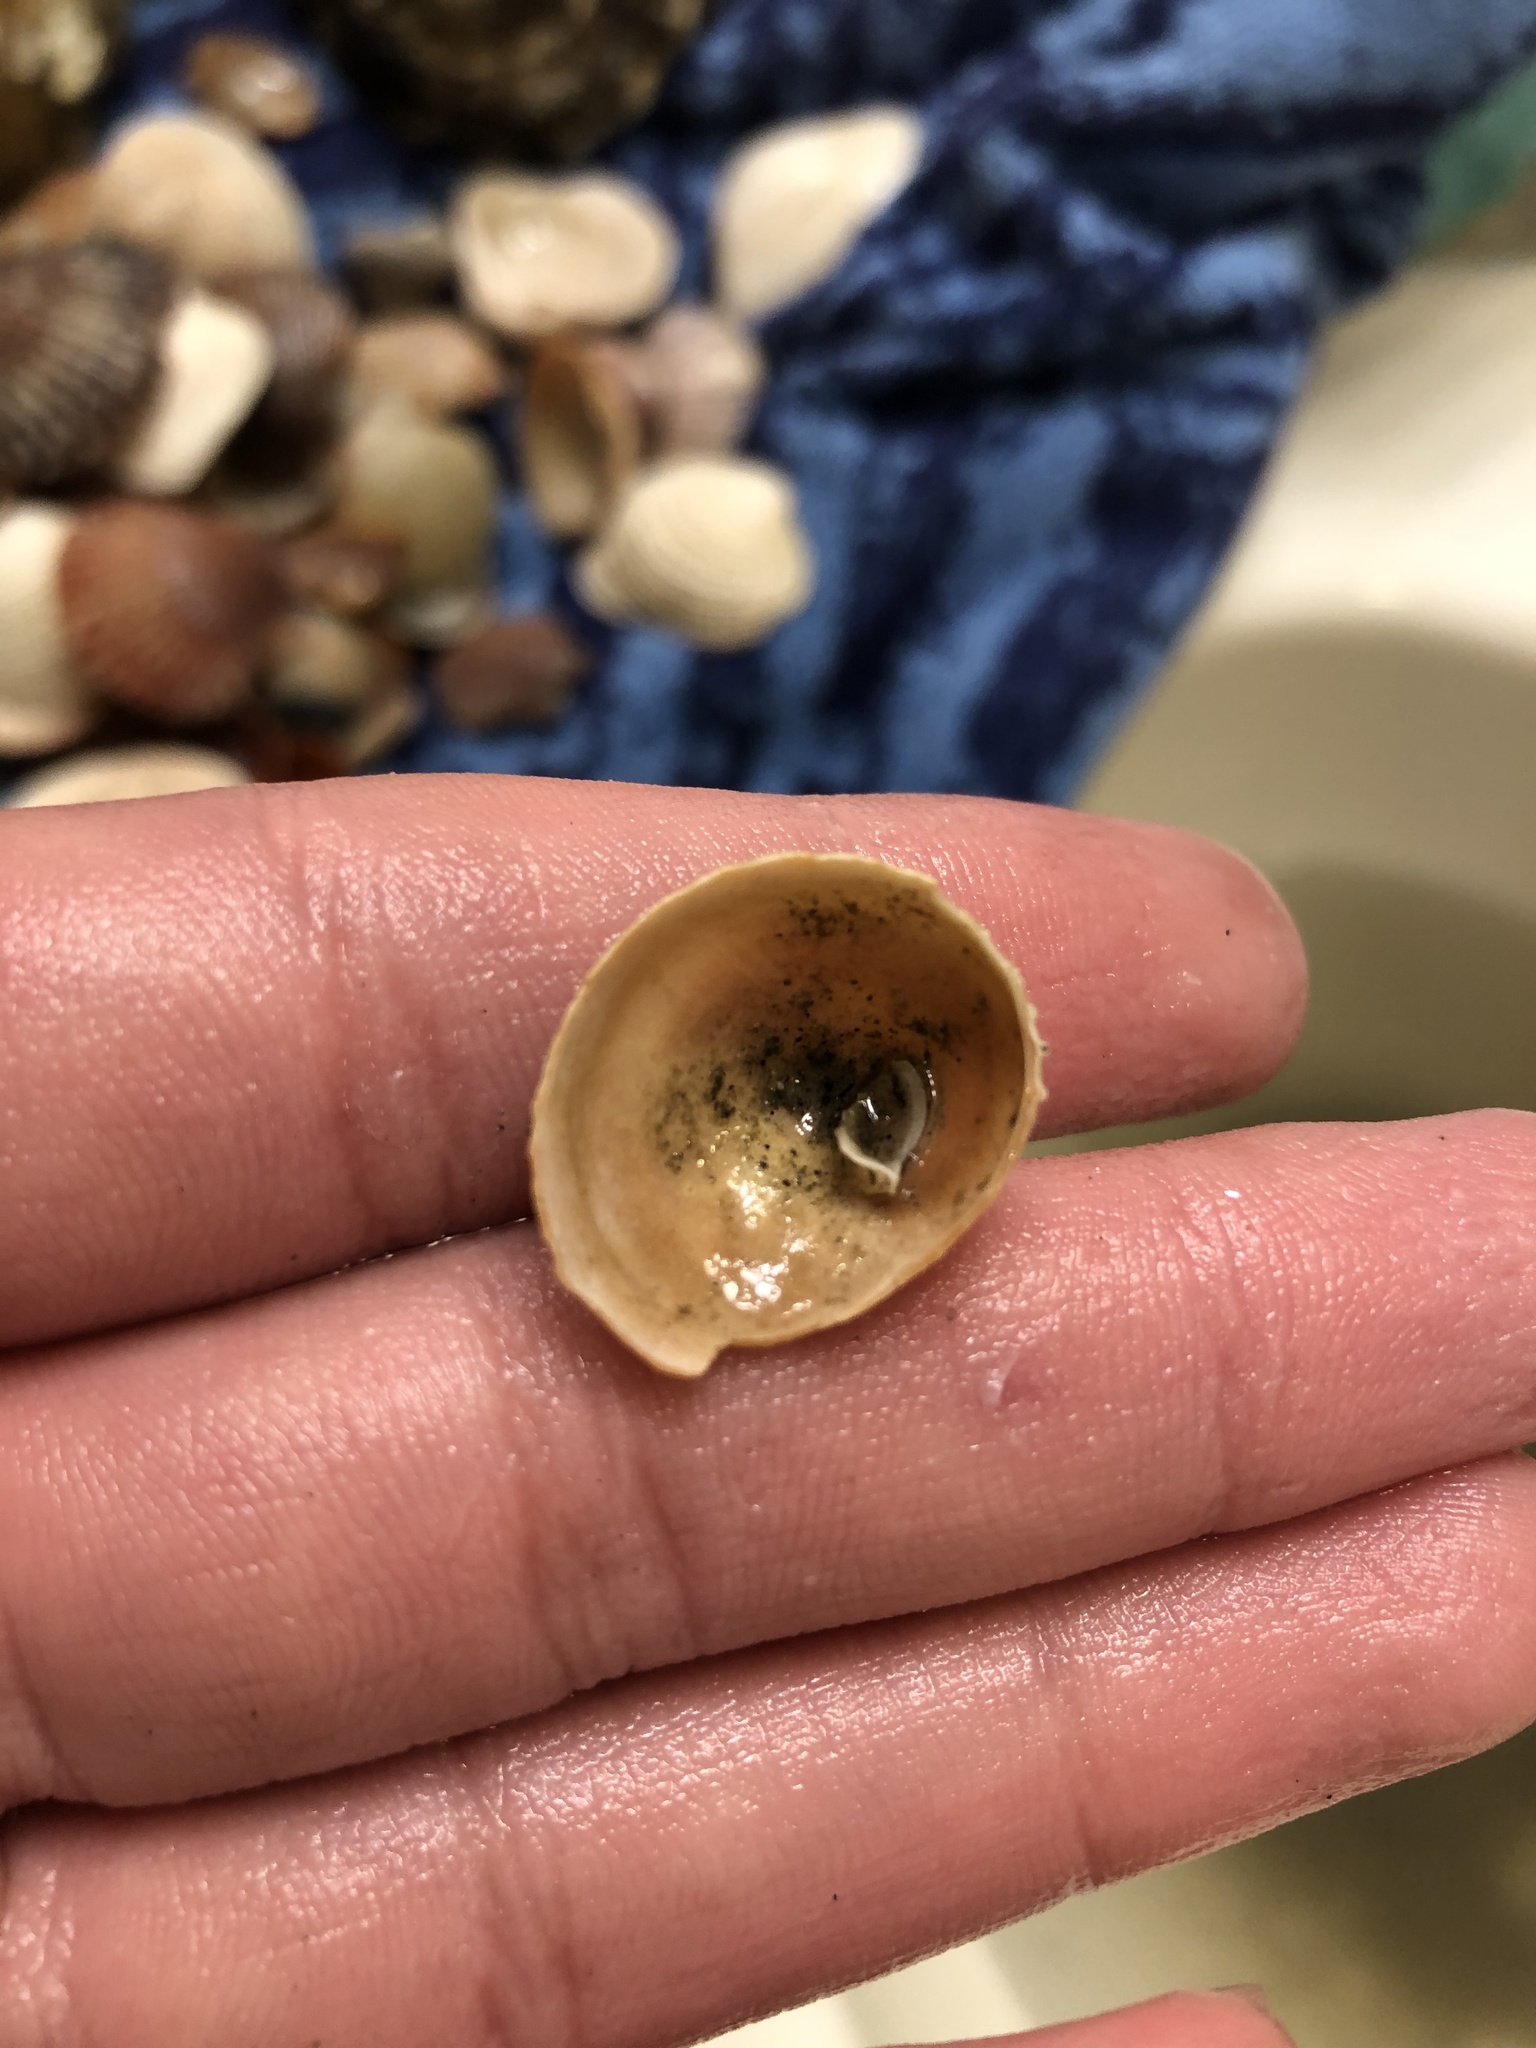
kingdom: Animalia
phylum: Mollusca
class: Gastropoda
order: Littorinimorpha
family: Calyptraeidae
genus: Crucibulum
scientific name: Crucibulum spinosum
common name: Spiny cup-and-saucer
